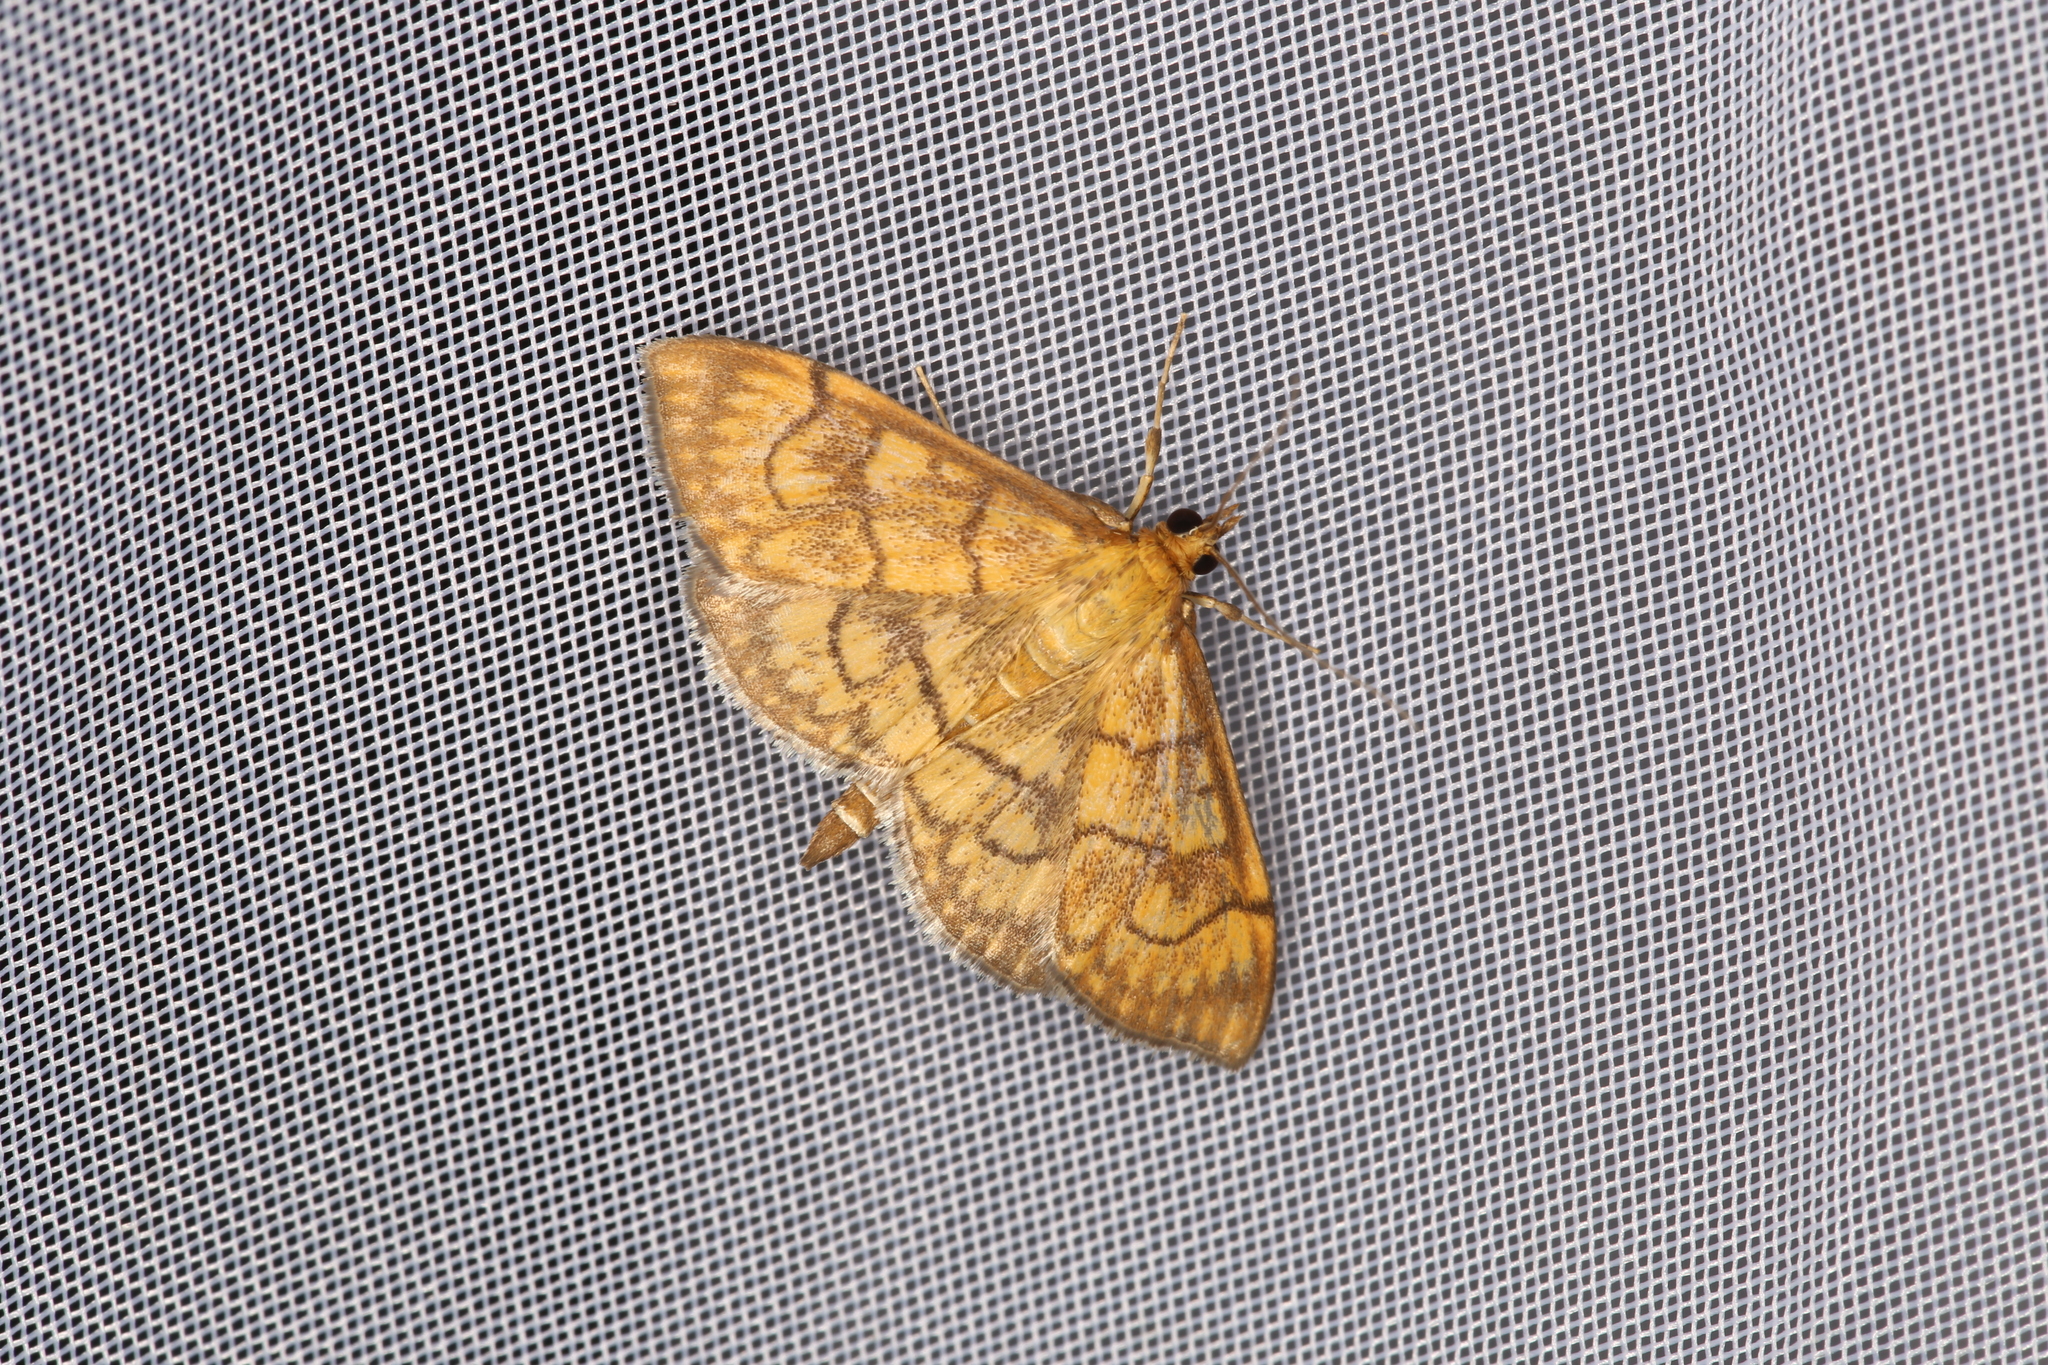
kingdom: Animalia
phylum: Arthropoda
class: Insecta
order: Lepidoptera
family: Crambidae
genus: Anania
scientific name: Anania verbascalis
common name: Golden pearl
